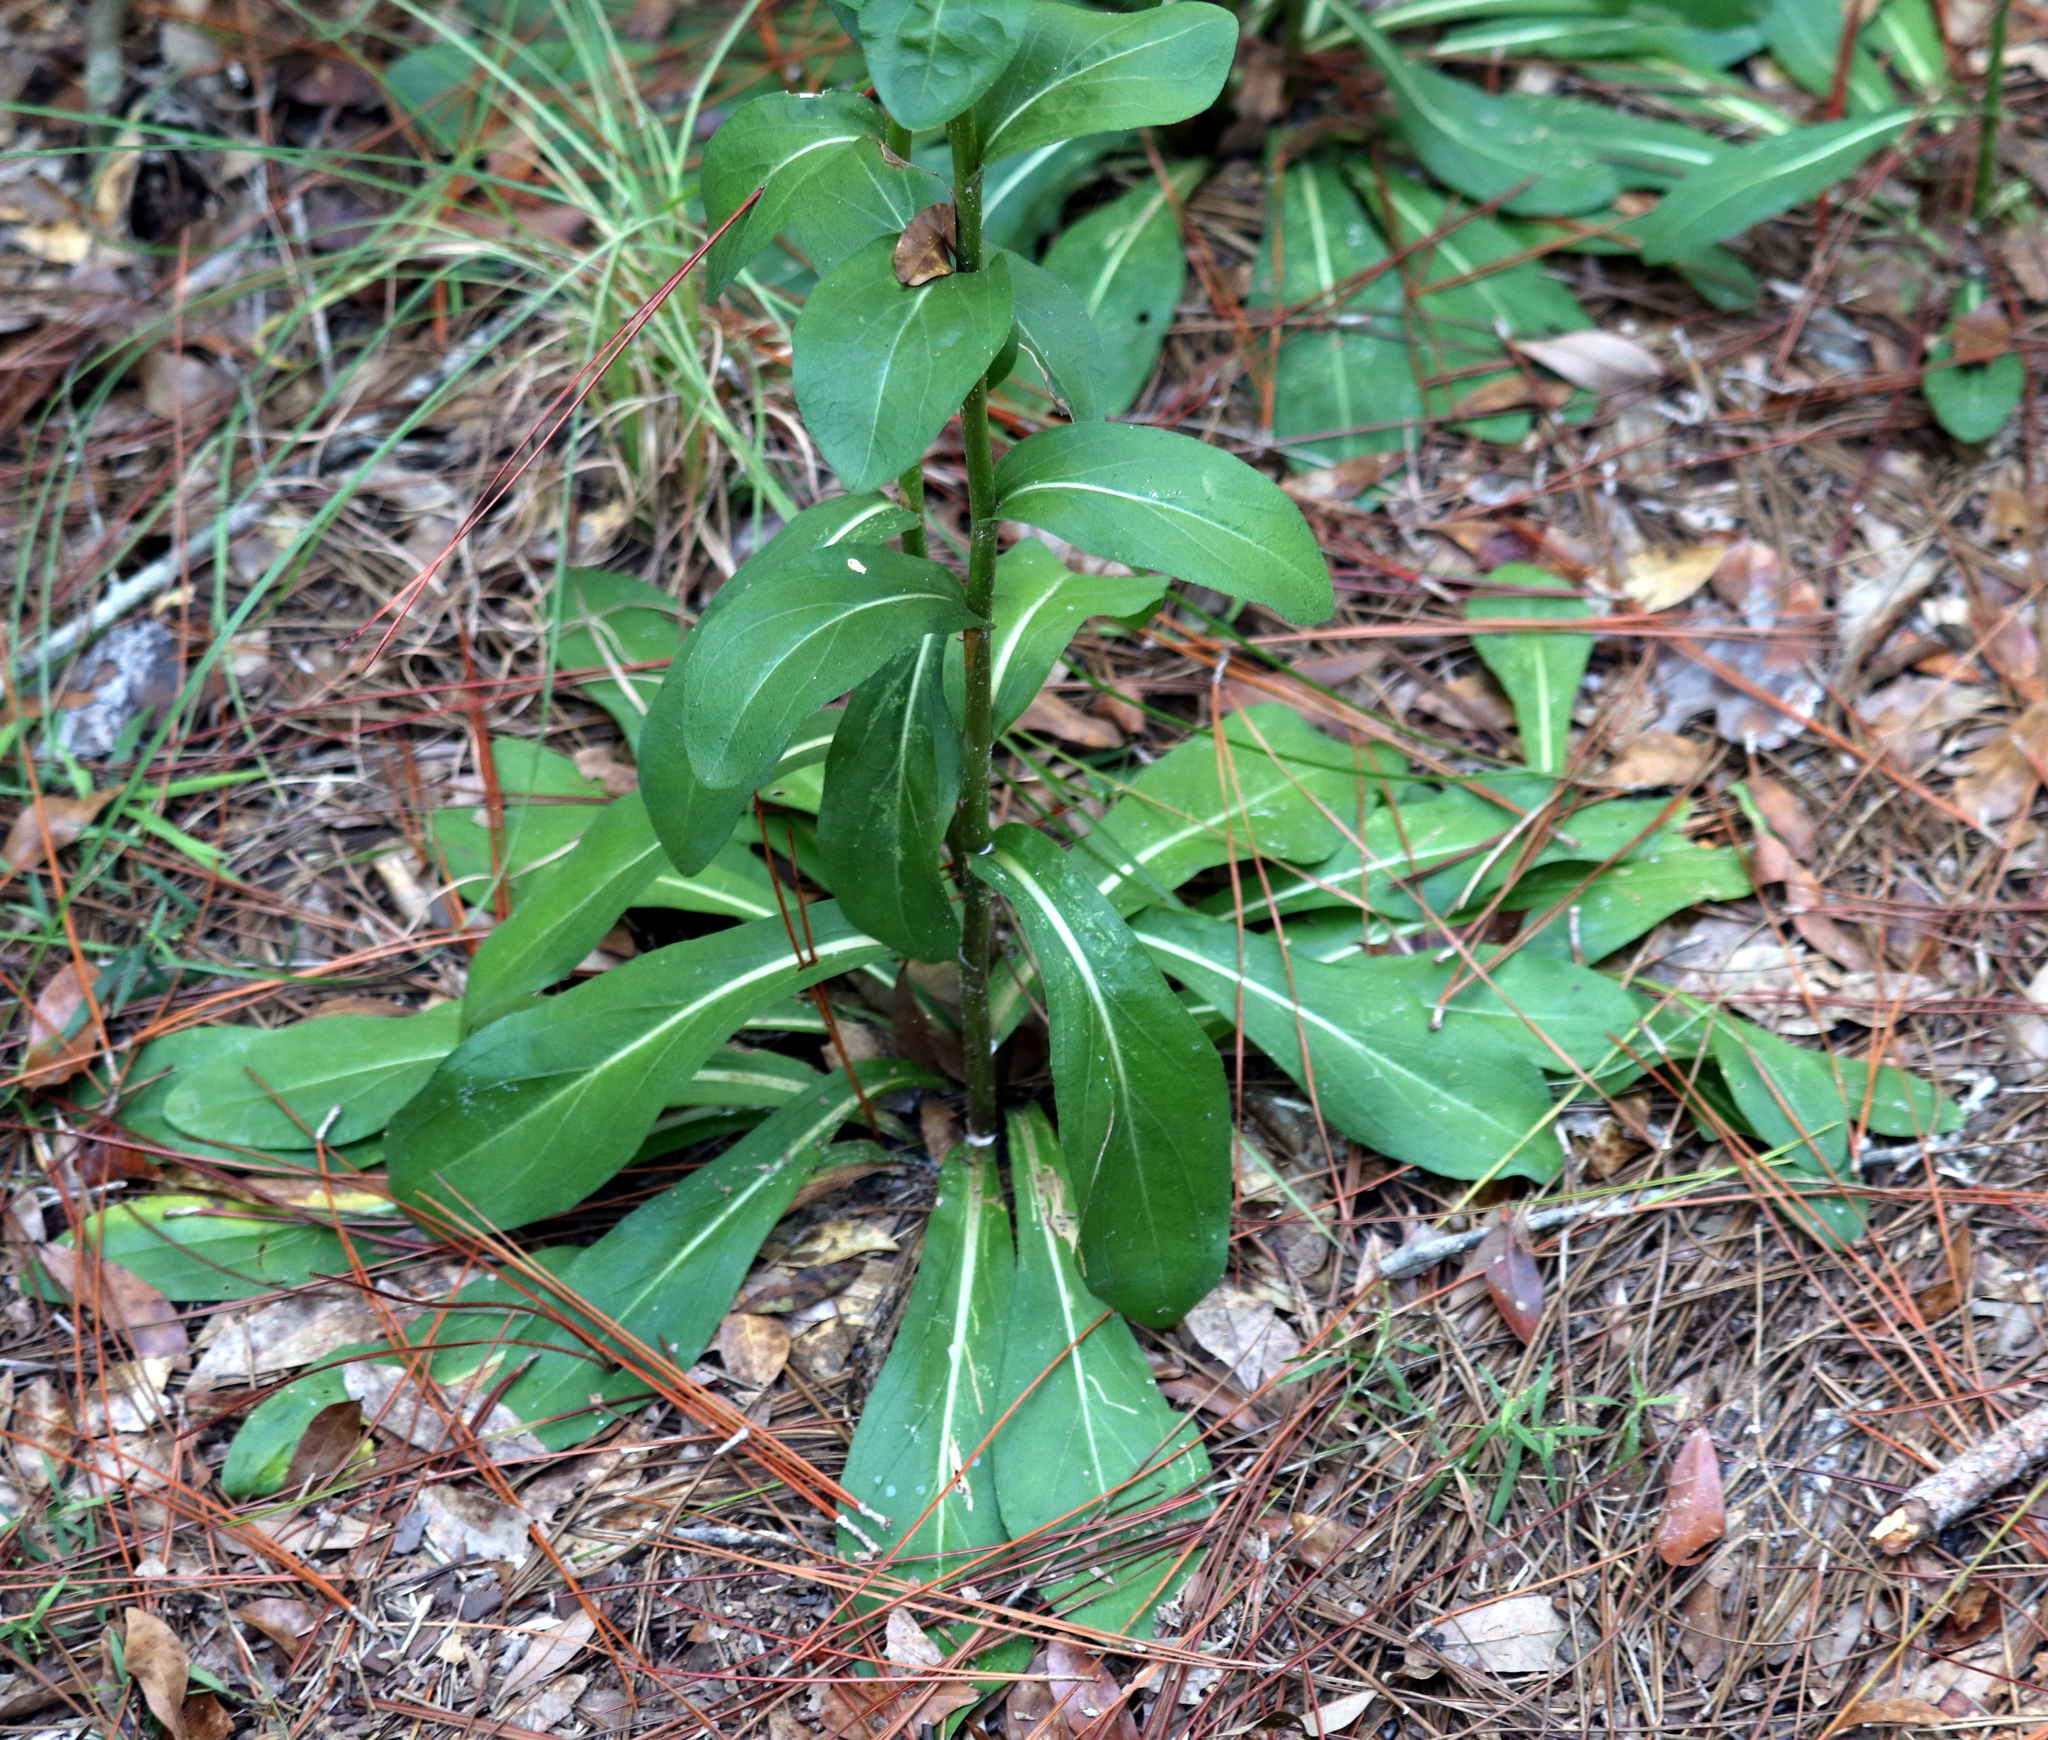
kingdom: Plantae
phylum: Tracheophyta
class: Magnoliopsida
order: Asterales
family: Asteraceae
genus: Carphephorus
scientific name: Carphephorus odoratissimus
